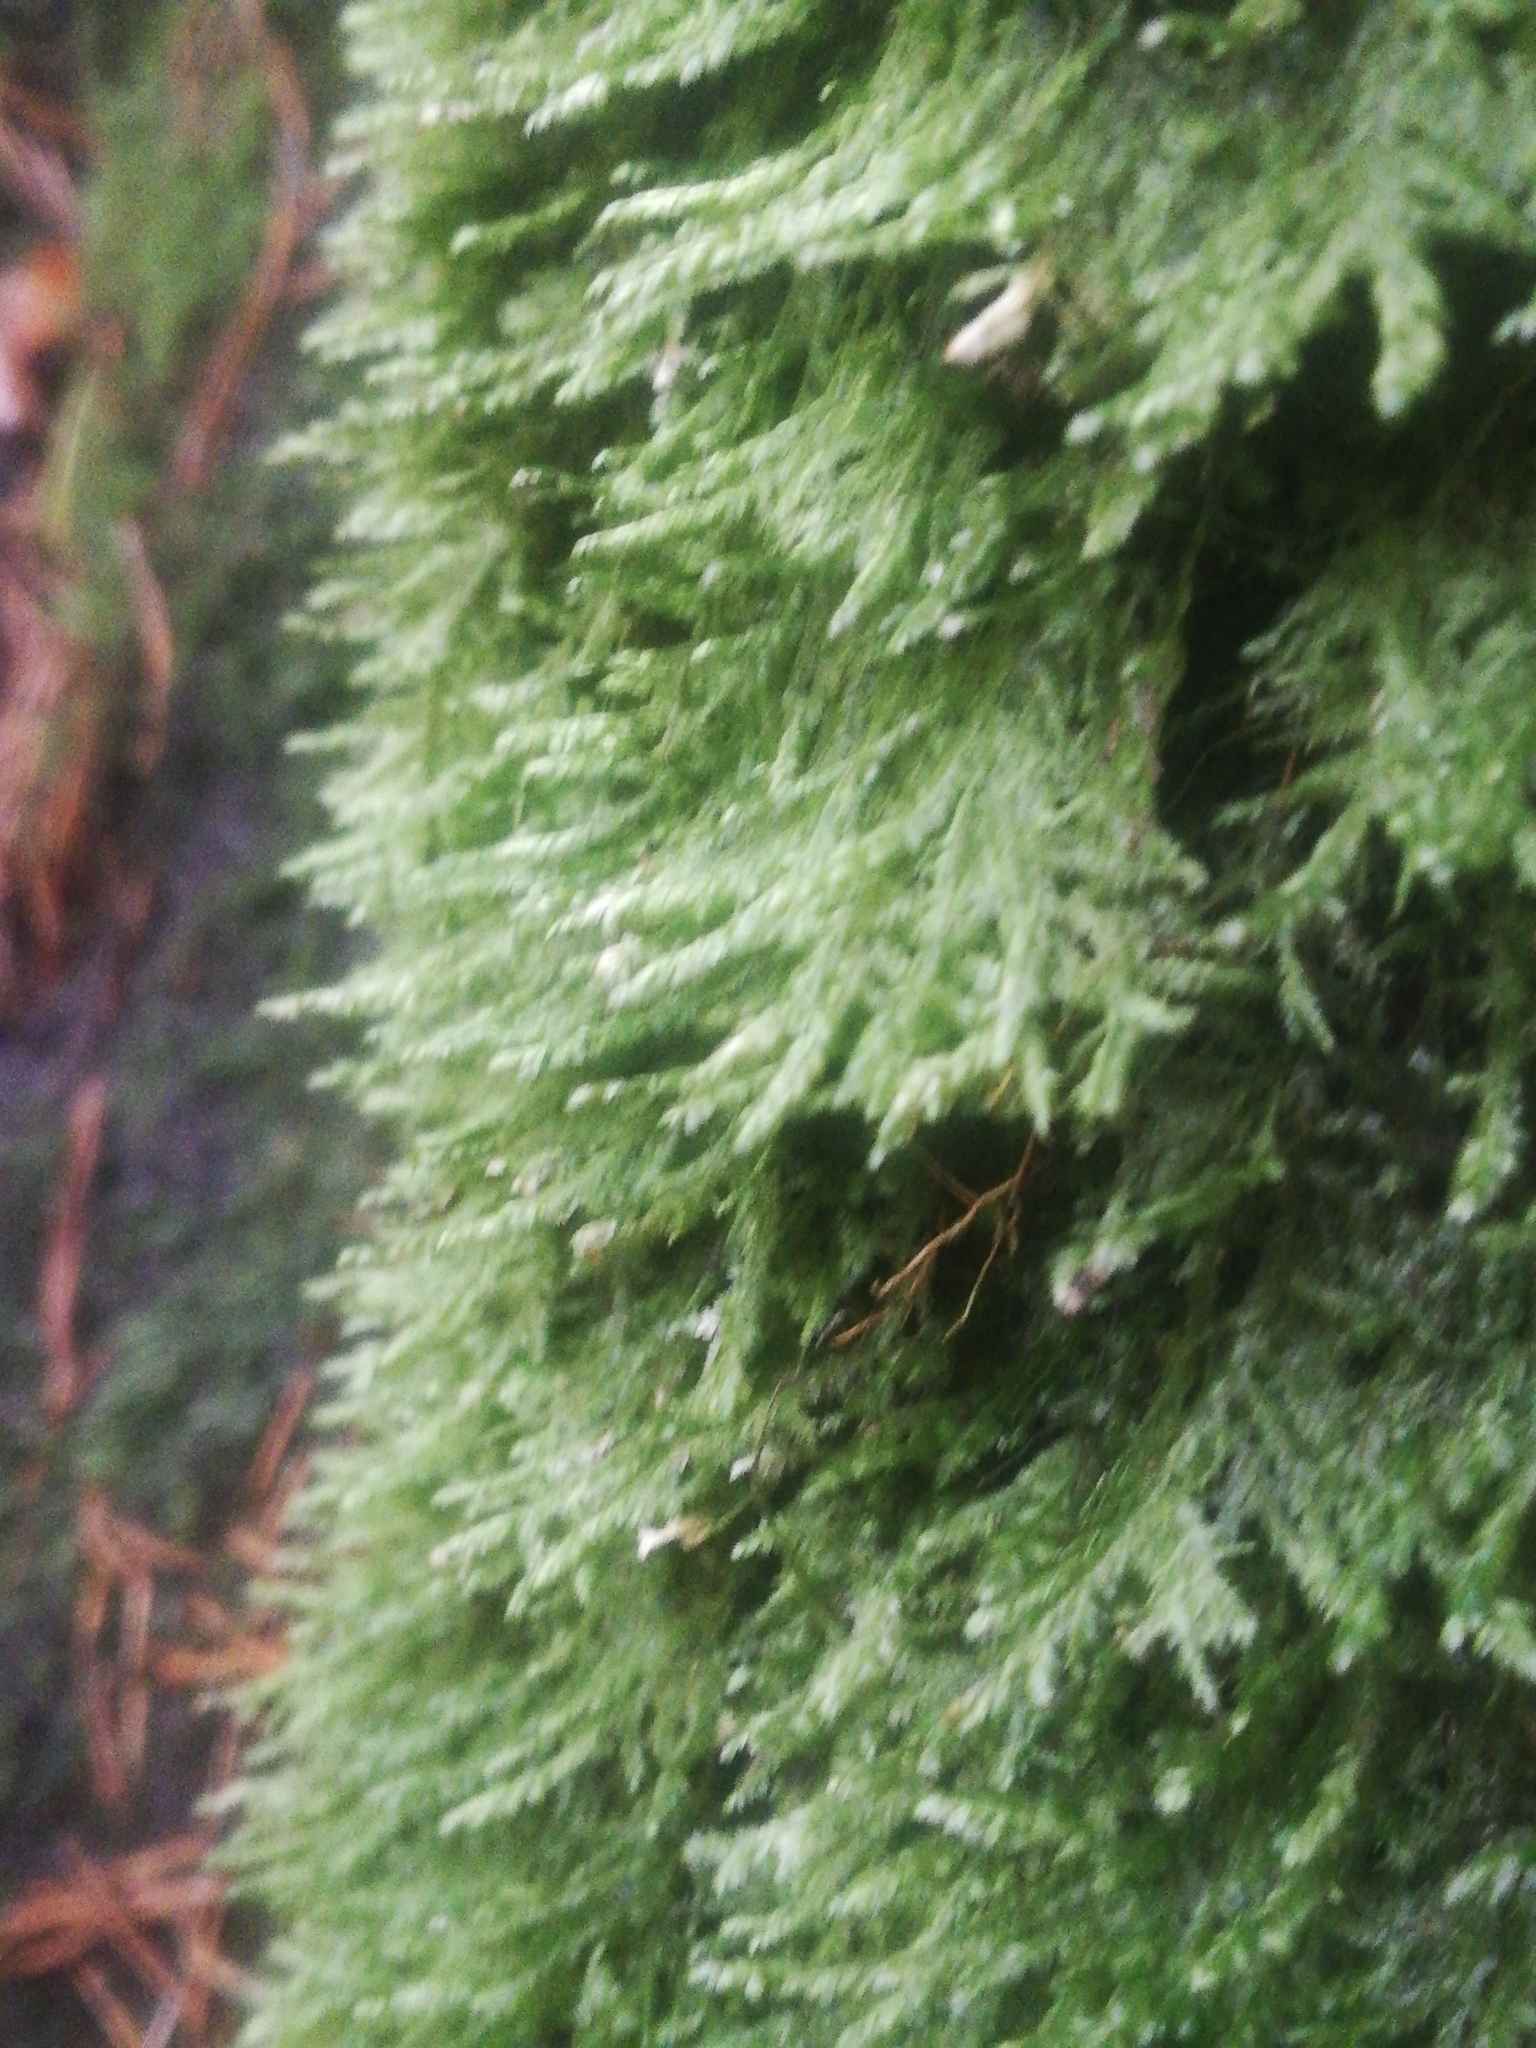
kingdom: Plantae
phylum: Bryophyta
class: Bryopsida
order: Hypnales
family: Neckeraceae
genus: Alleniella
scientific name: Alleniella complanata
